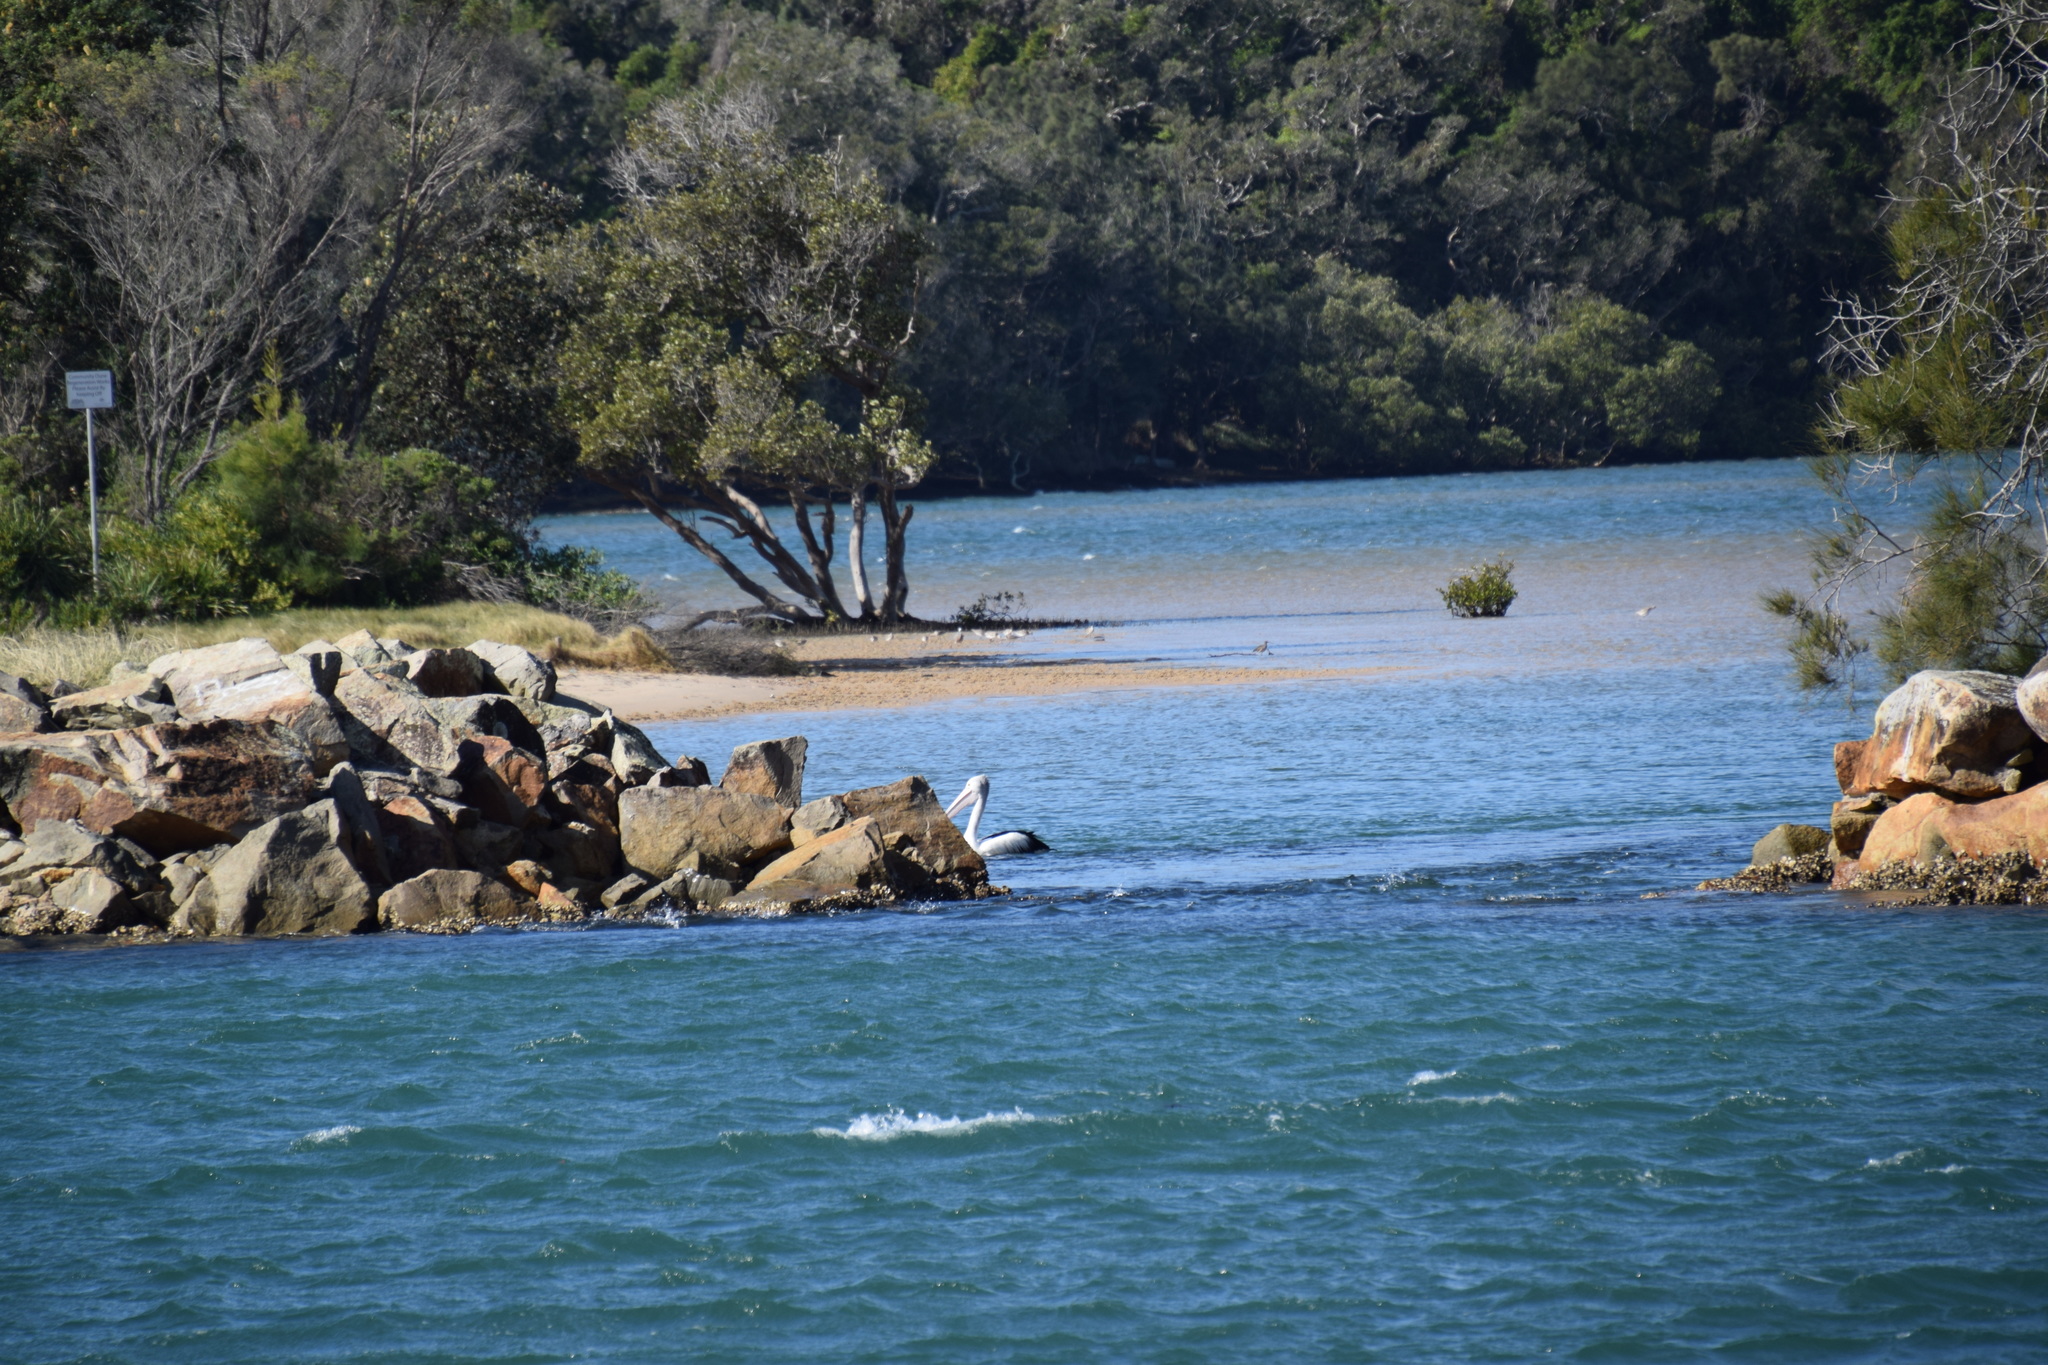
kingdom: Animalia
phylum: Chordata
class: Aves
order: Pelecaniformes
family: Pelecanidae
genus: Pelecanus
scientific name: Pelecanus conspicillatus
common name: Australian pelican
